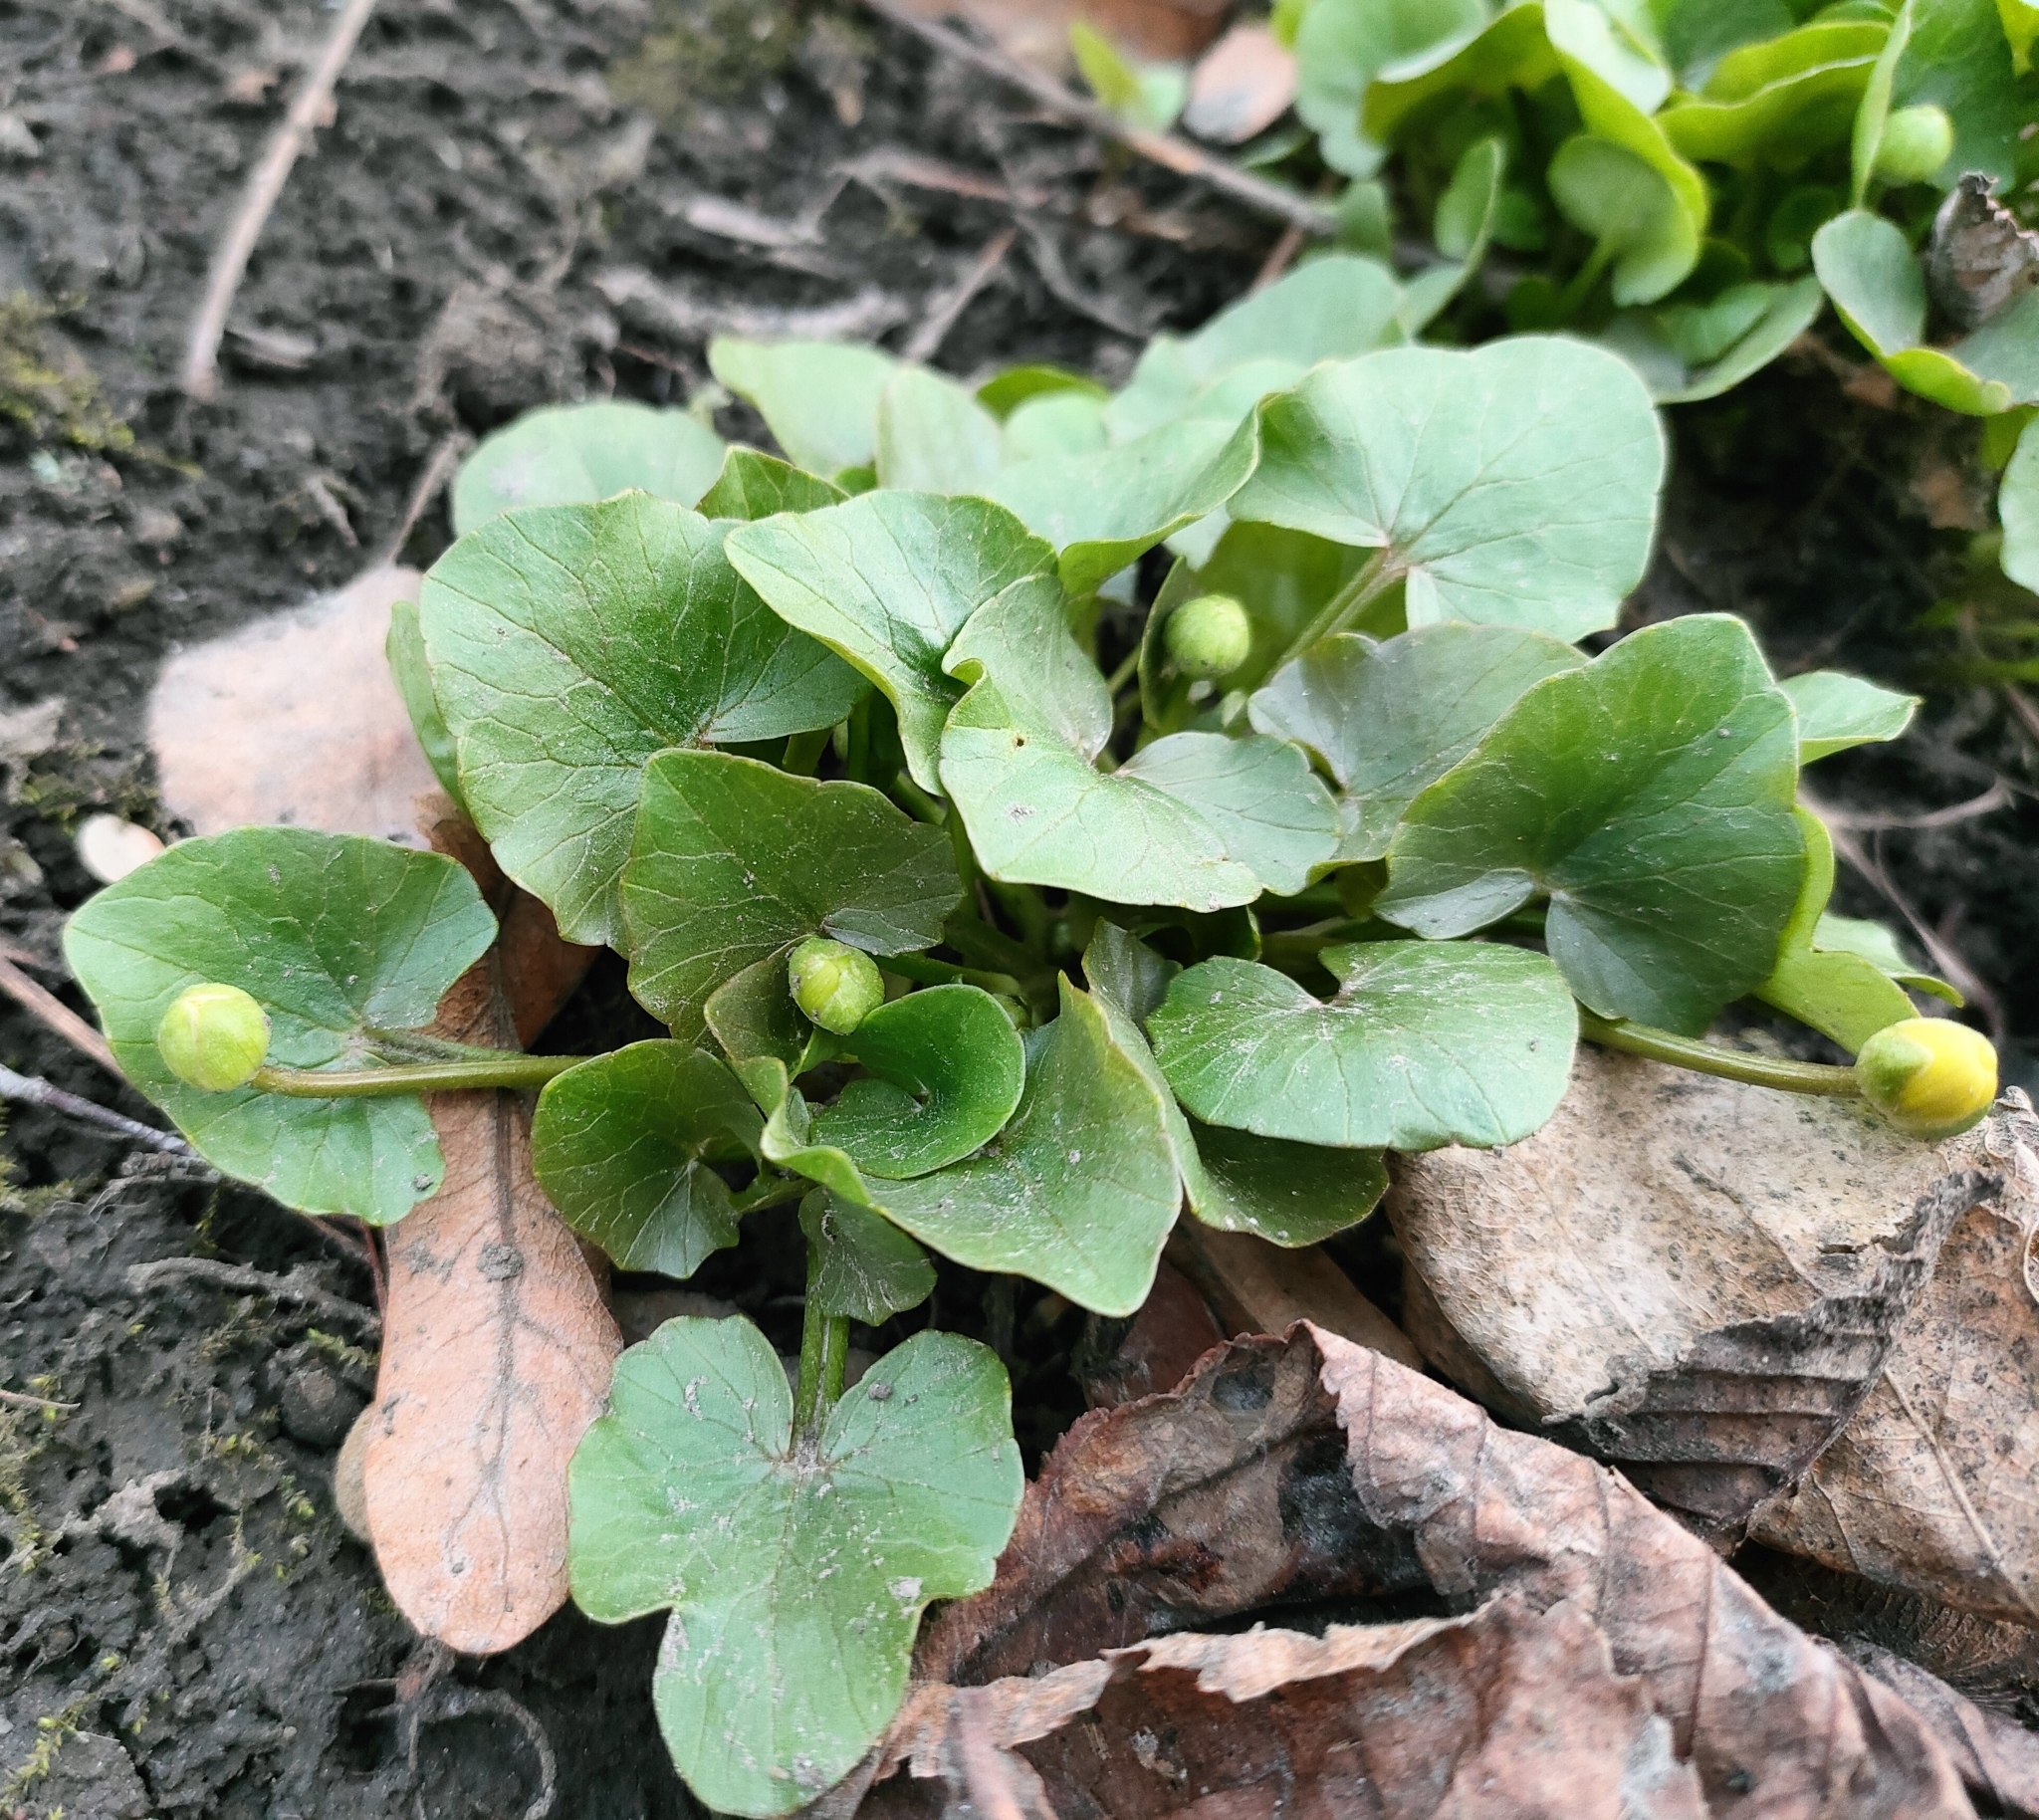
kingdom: Plantae
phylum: Tracheophyta
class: Magnoliopsida
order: Ranunculales
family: Ranunculaceae
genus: Ficaria
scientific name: Ficaria verna
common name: Lesser celandine
